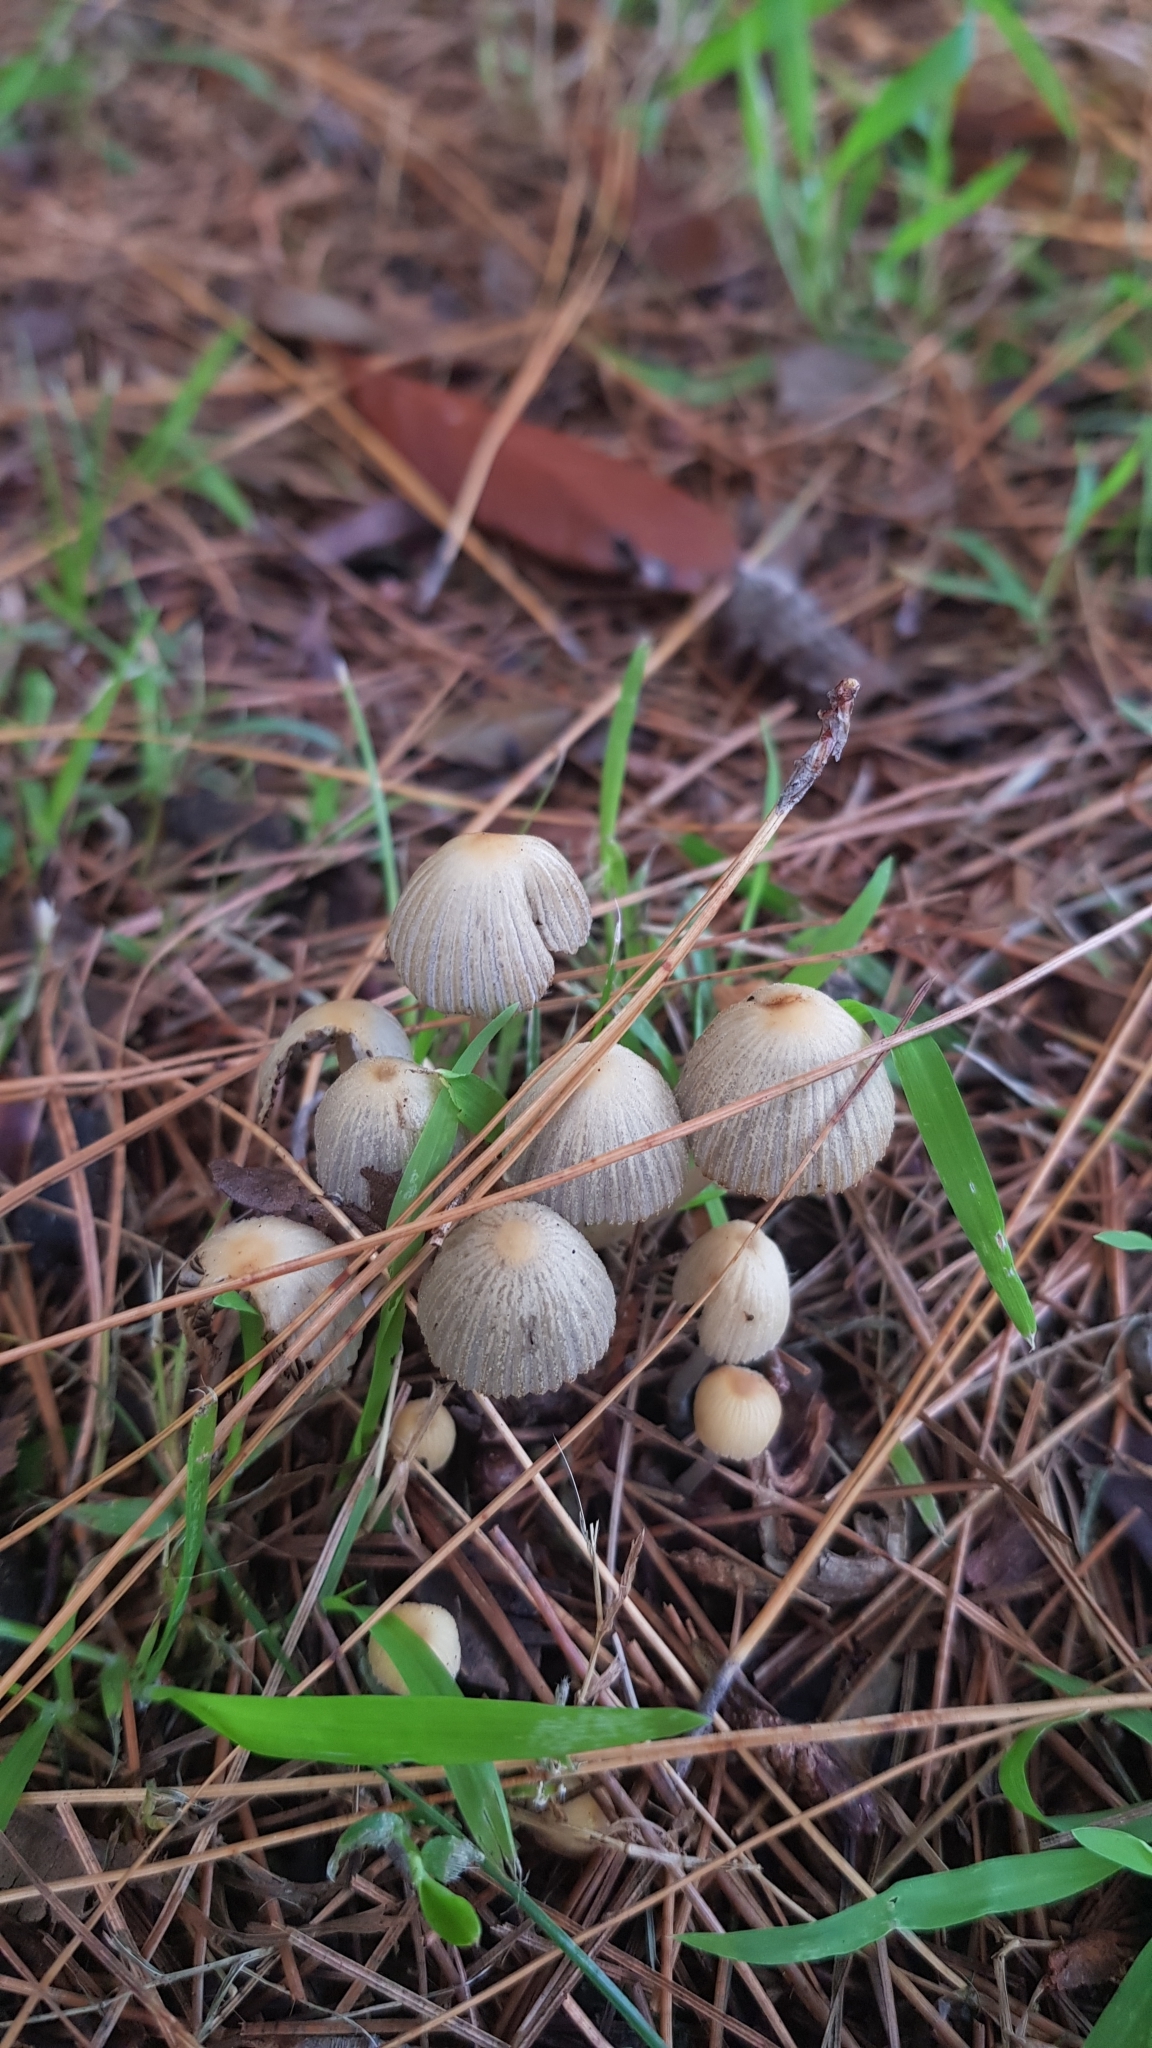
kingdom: Fungi
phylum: Basidiomycota
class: Agaricomycetes
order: Agaricales
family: Psathyrellaceae
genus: Coprinellus
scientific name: Coprinellus disseminatus
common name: Fairies' bonnets
